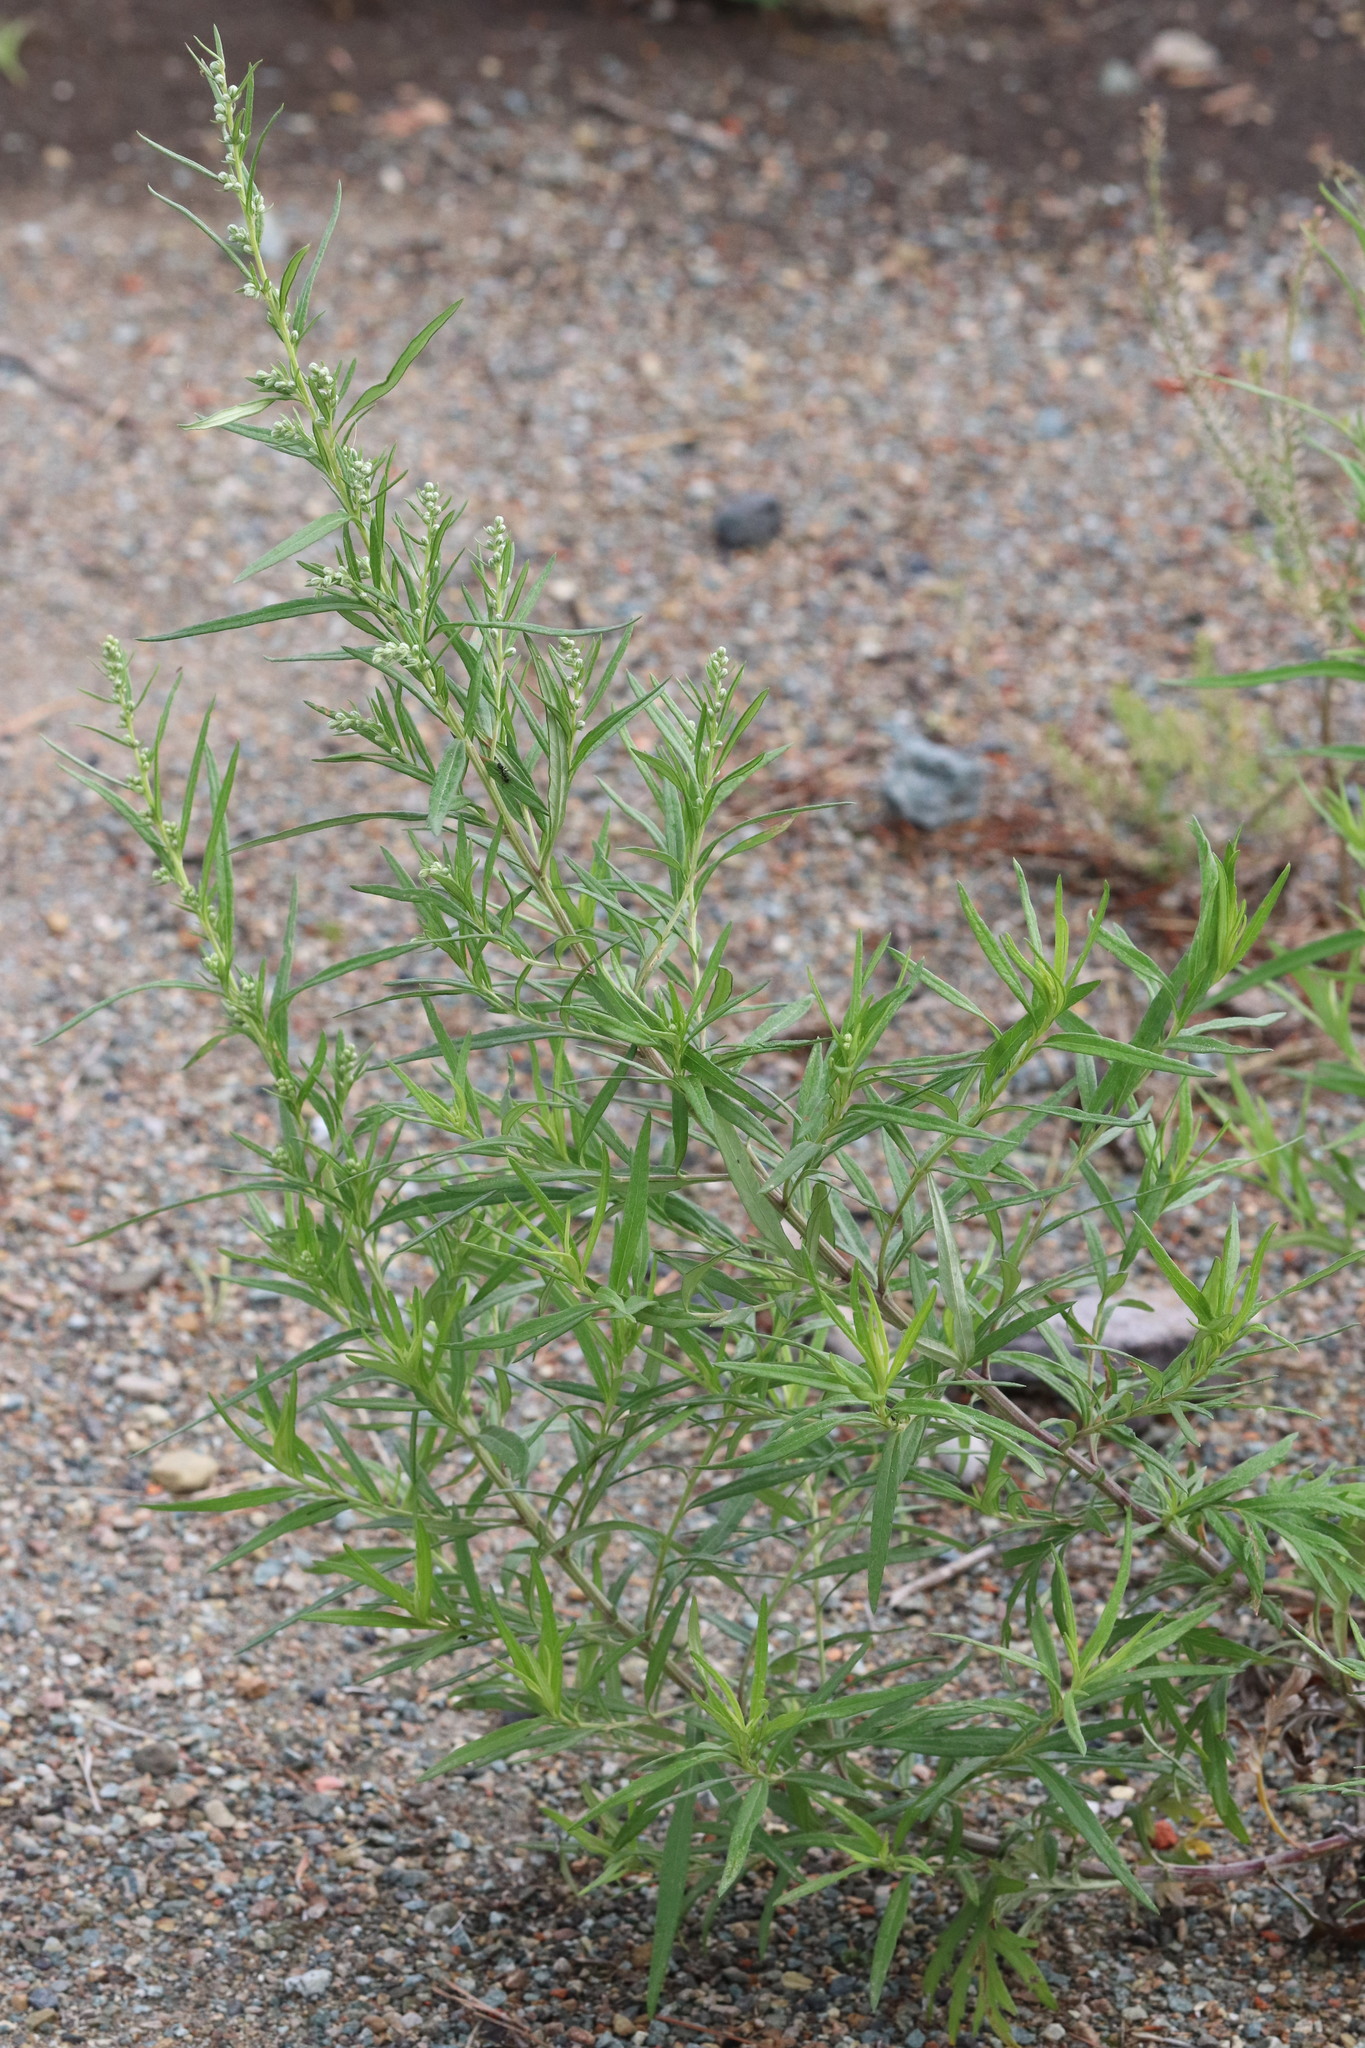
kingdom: Plantae
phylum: Tracheophyta
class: Magnoliopsida
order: Asterales
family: Asteraceae
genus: Artemisia
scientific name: Artemisia vulgaris
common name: Mugwort
